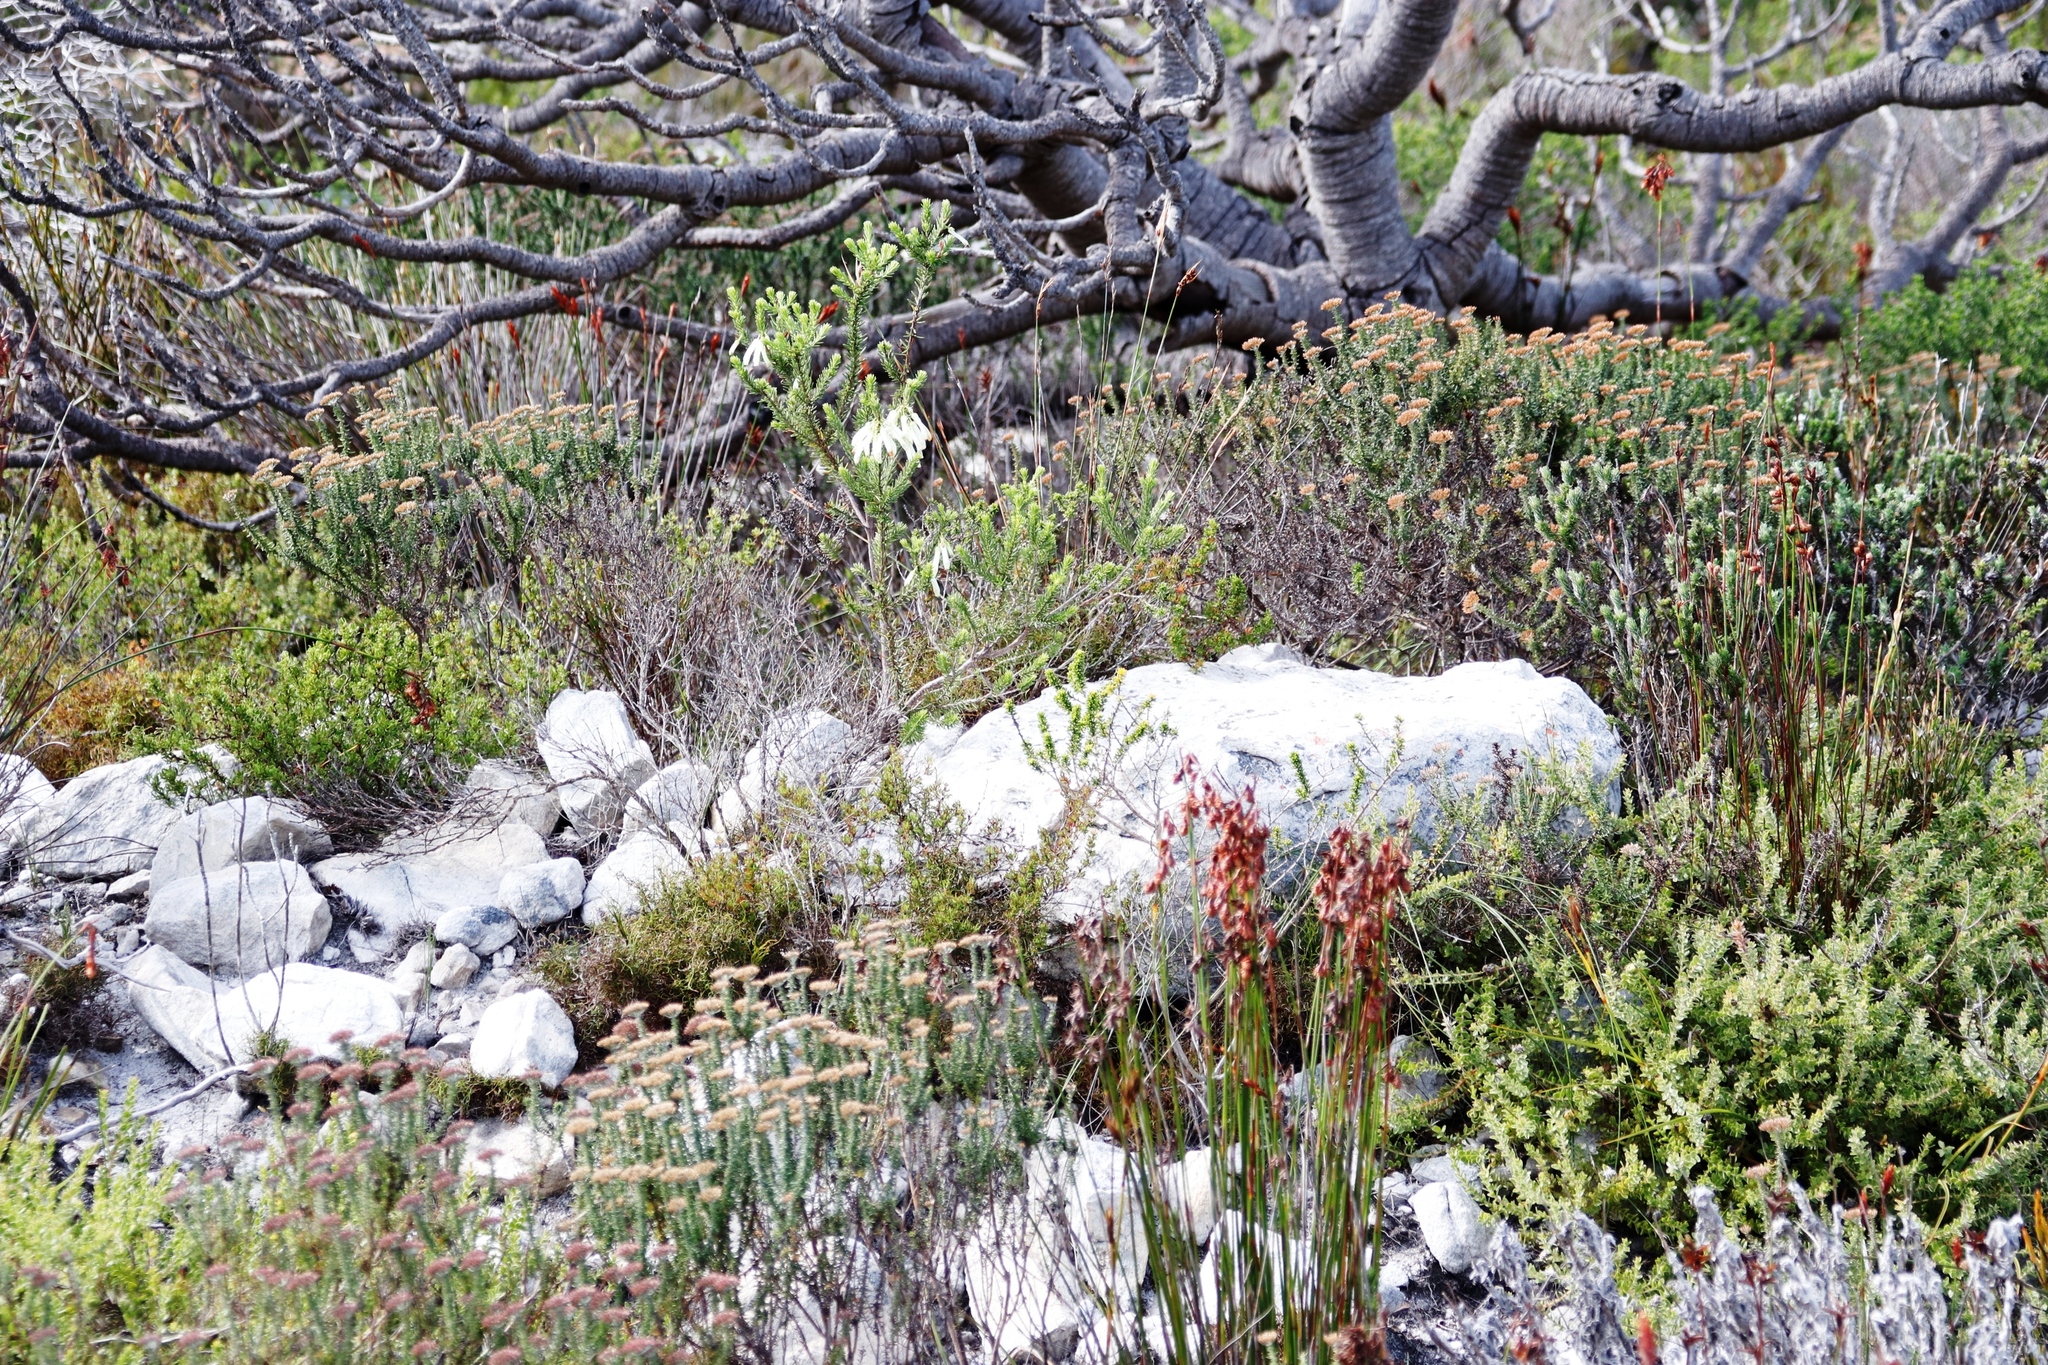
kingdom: Plantae
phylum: Tracheophyta
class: Magnoliopsida
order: Ericales
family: Ericaceae
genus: Erica
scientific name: Erica mammosa
